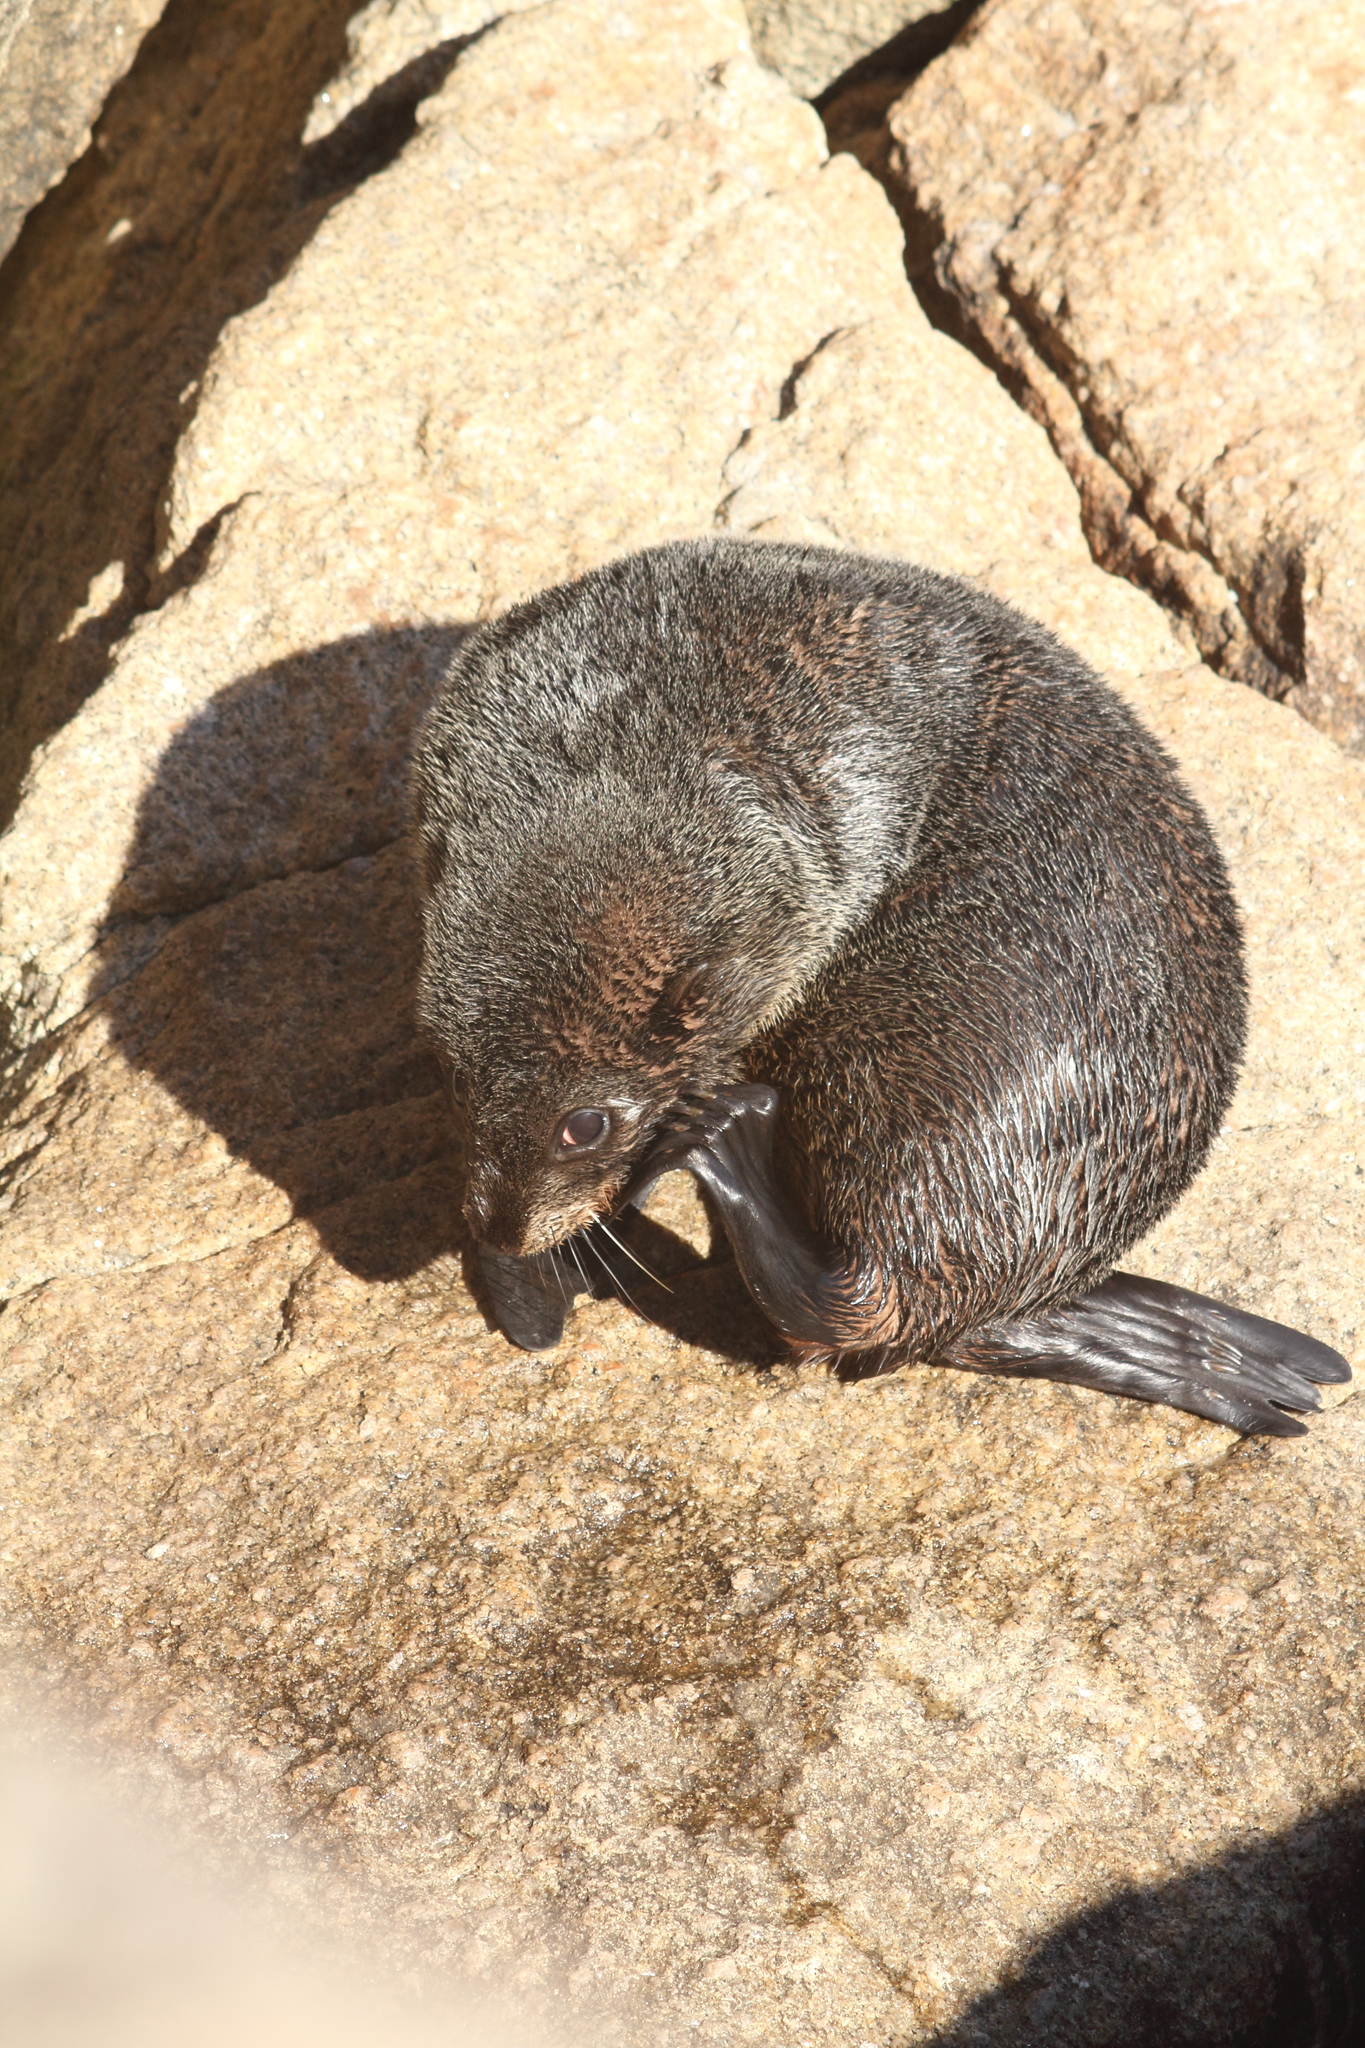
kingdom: Animalia
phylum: Chordata
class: Mammalia
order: Carnivora
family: Otariidae
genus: Arctocephalus
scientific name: Arctocephalus forsteri
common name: New zealand fur seal
